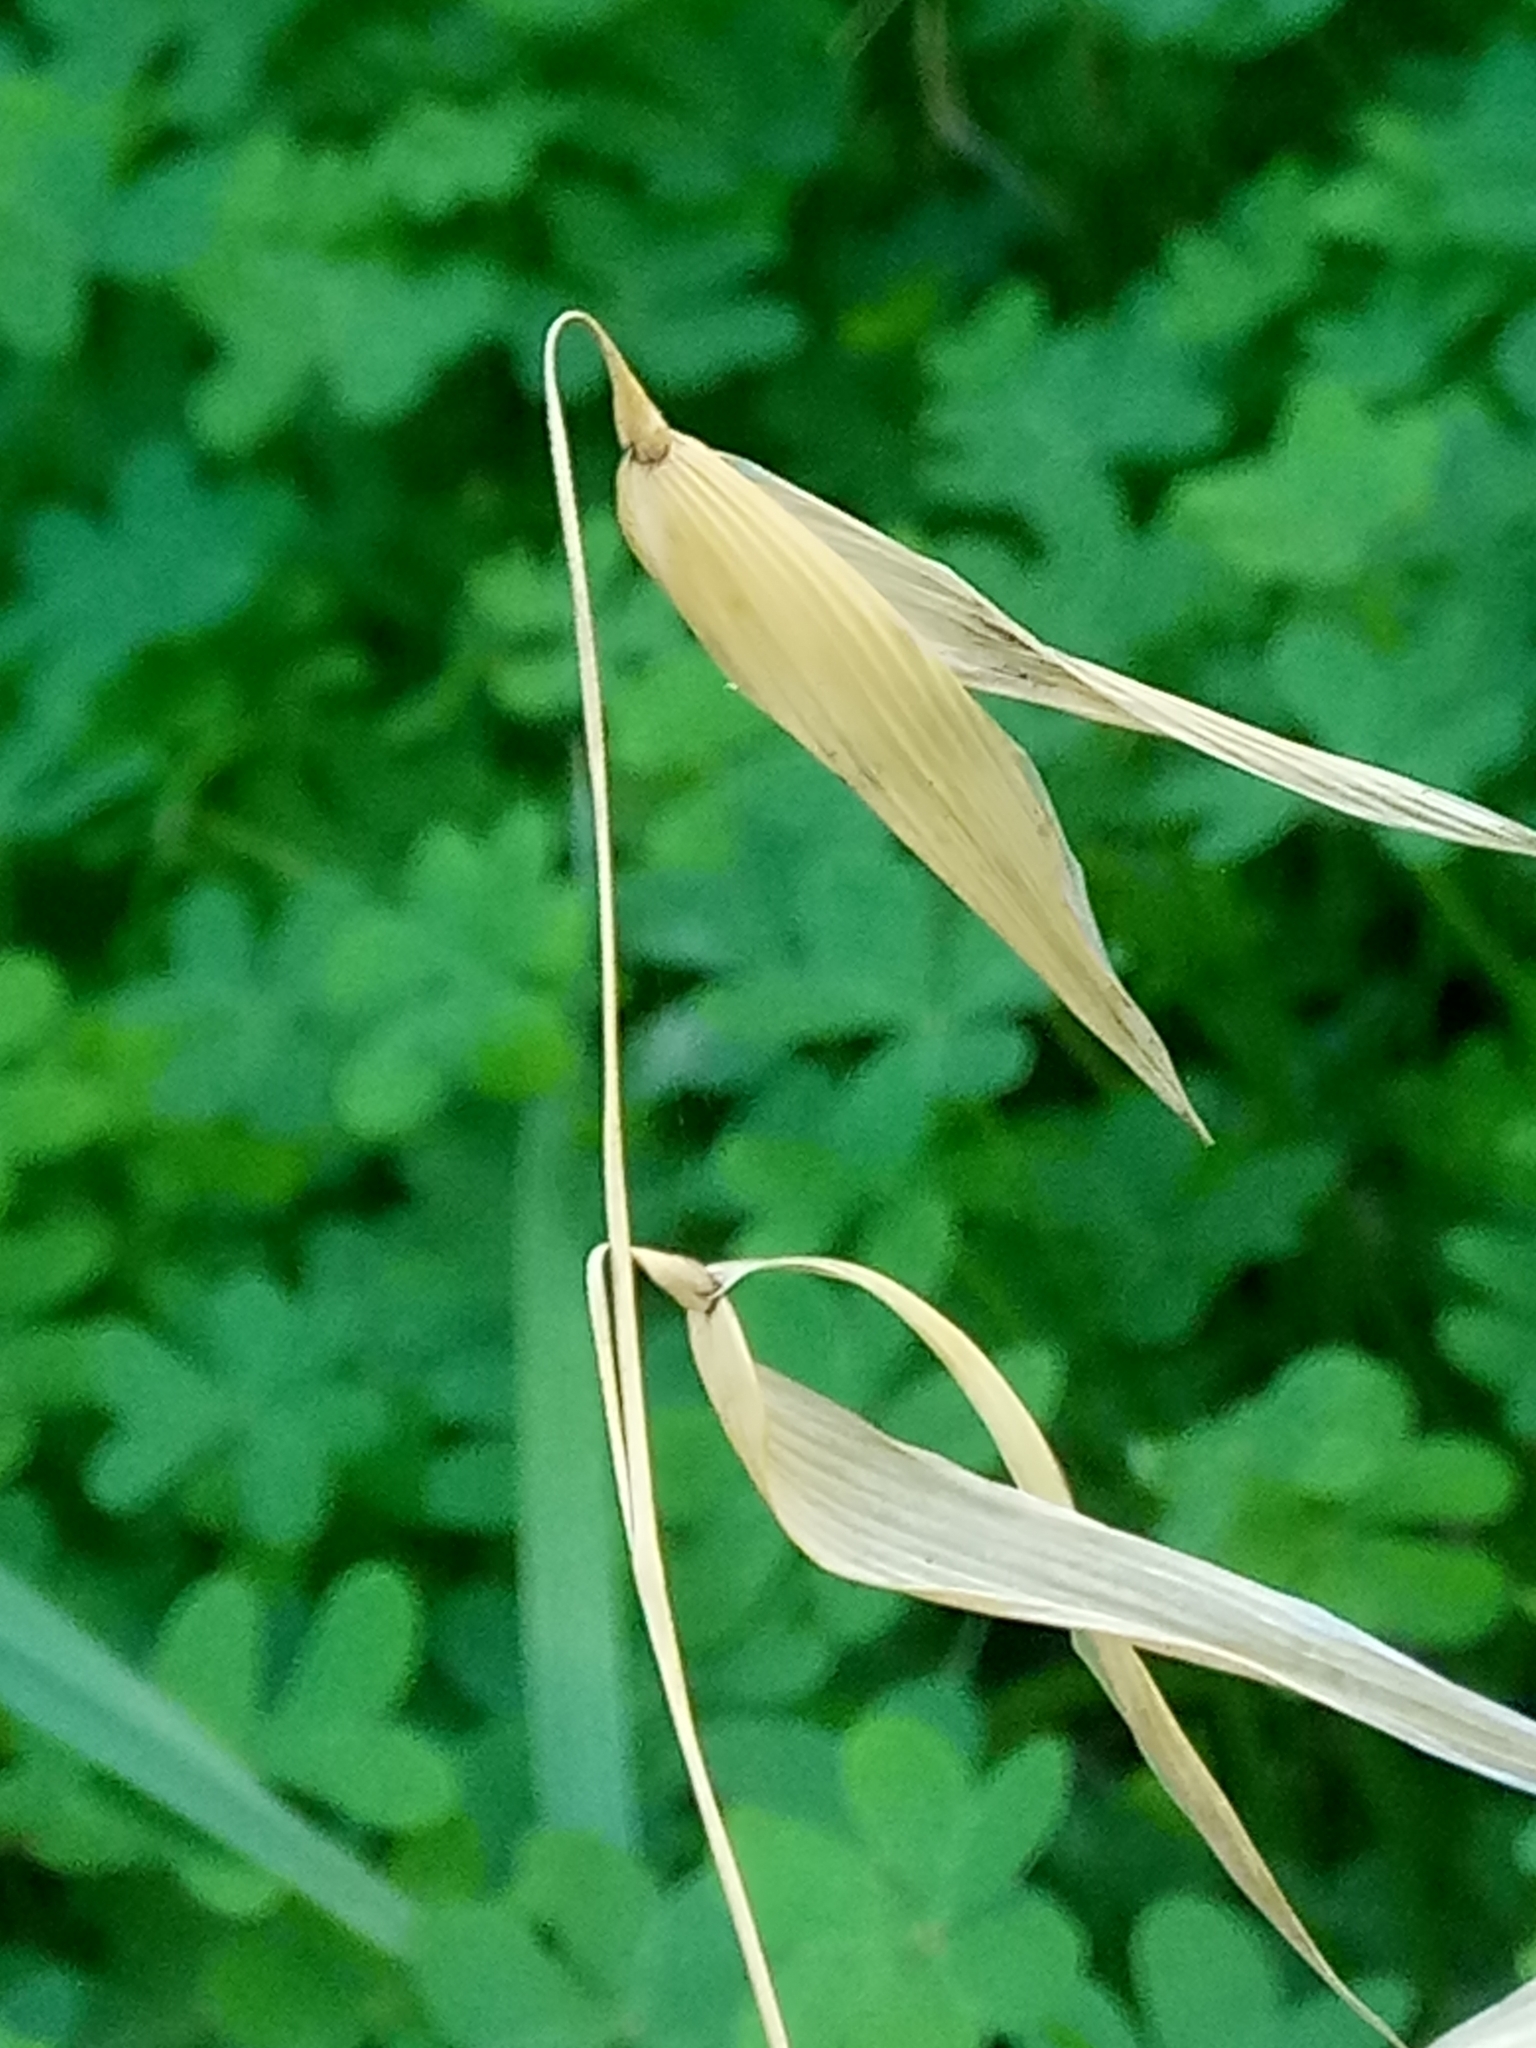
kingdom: Plantae
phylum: Tracheophyta
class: Liliopsida
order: Poales
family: Poaceae
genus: Avena
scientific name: Avena sterilis
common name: Animated oat
